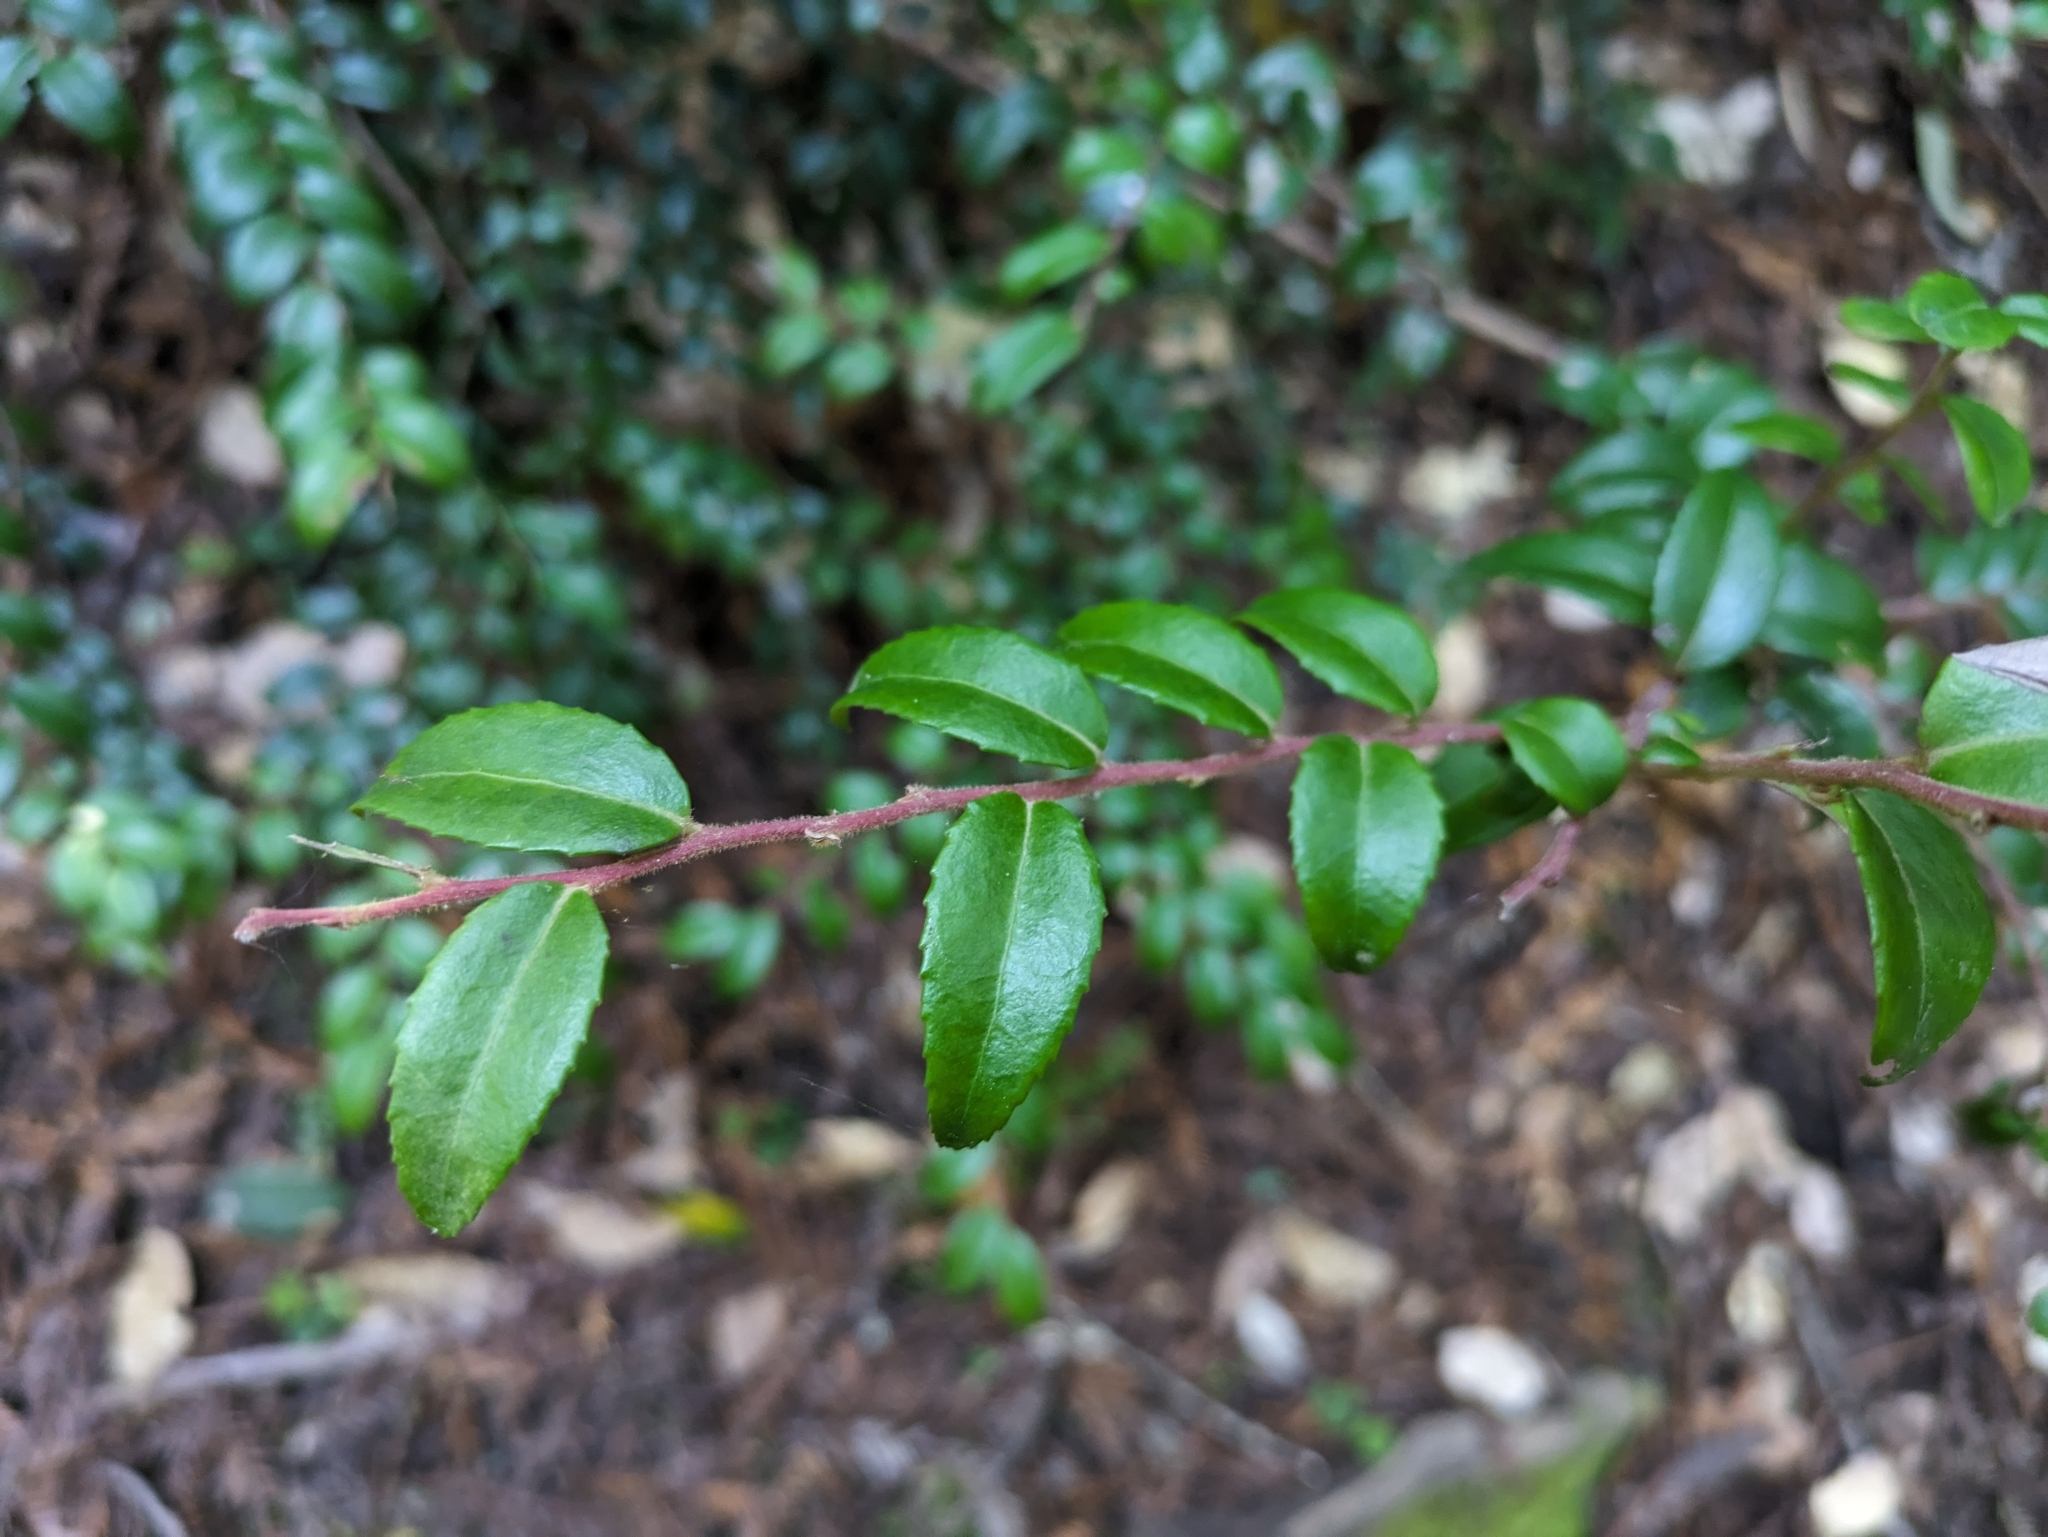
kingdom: Plantae
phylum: Tracheophyta
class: Magnoliopsida
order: Ericales
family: Ericaceae
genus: Vaccinium
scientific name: Vaccinium ovatum
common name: California-huckleberry
